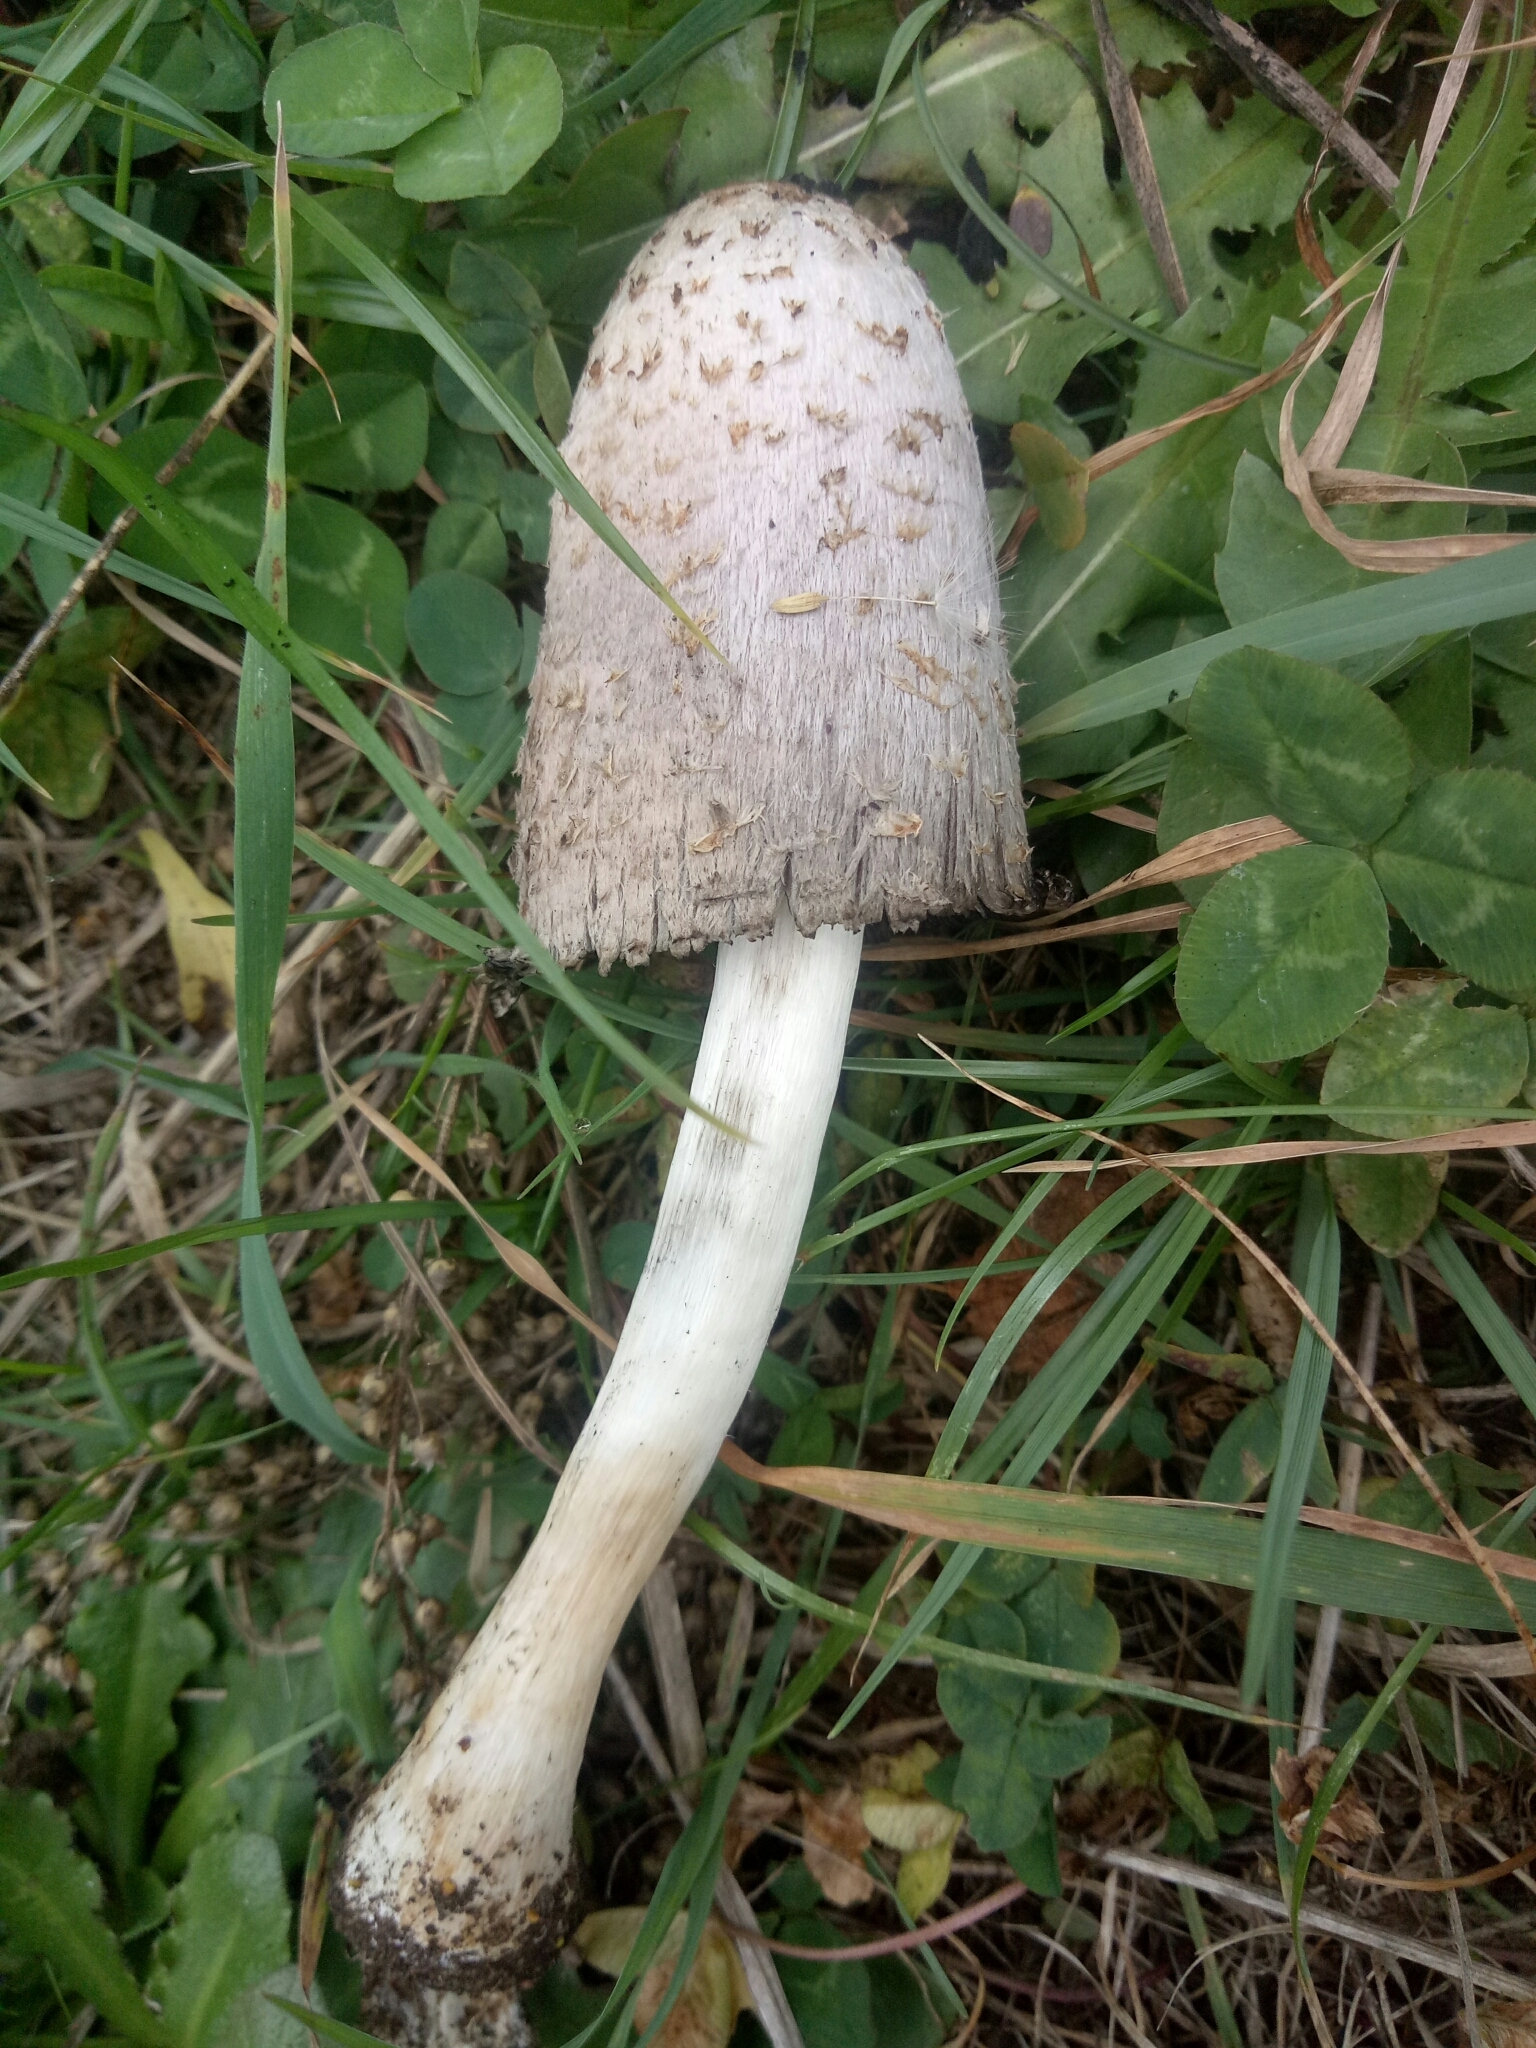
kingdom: Fungi
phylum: Basidiomycota
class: Agaricomycetes
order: Agaricales
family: Agaricaceae
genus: Coprinus
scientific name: Coprinus comatus
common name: Lawyer's wig
